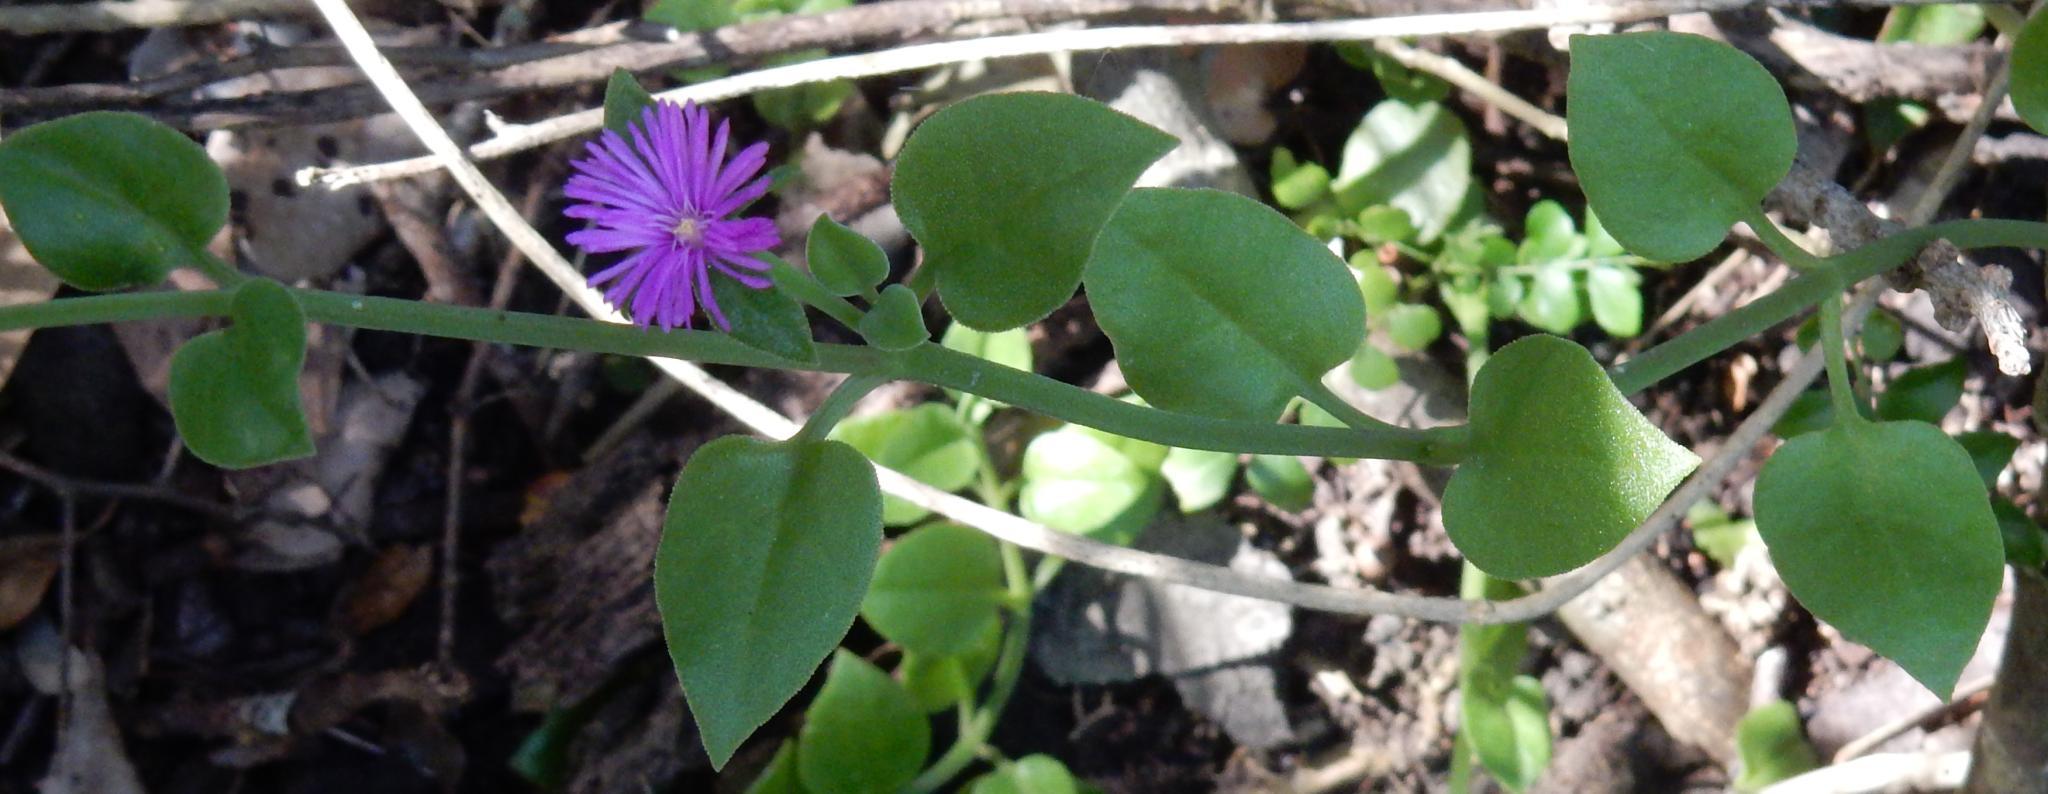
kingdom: Plantae
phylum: Tracheophyta
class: Magnoliopsida
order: Caryophyllales
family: Aizoaceae
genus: Mesembryanthemum
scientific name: Mesembryanthemum cordifolium
